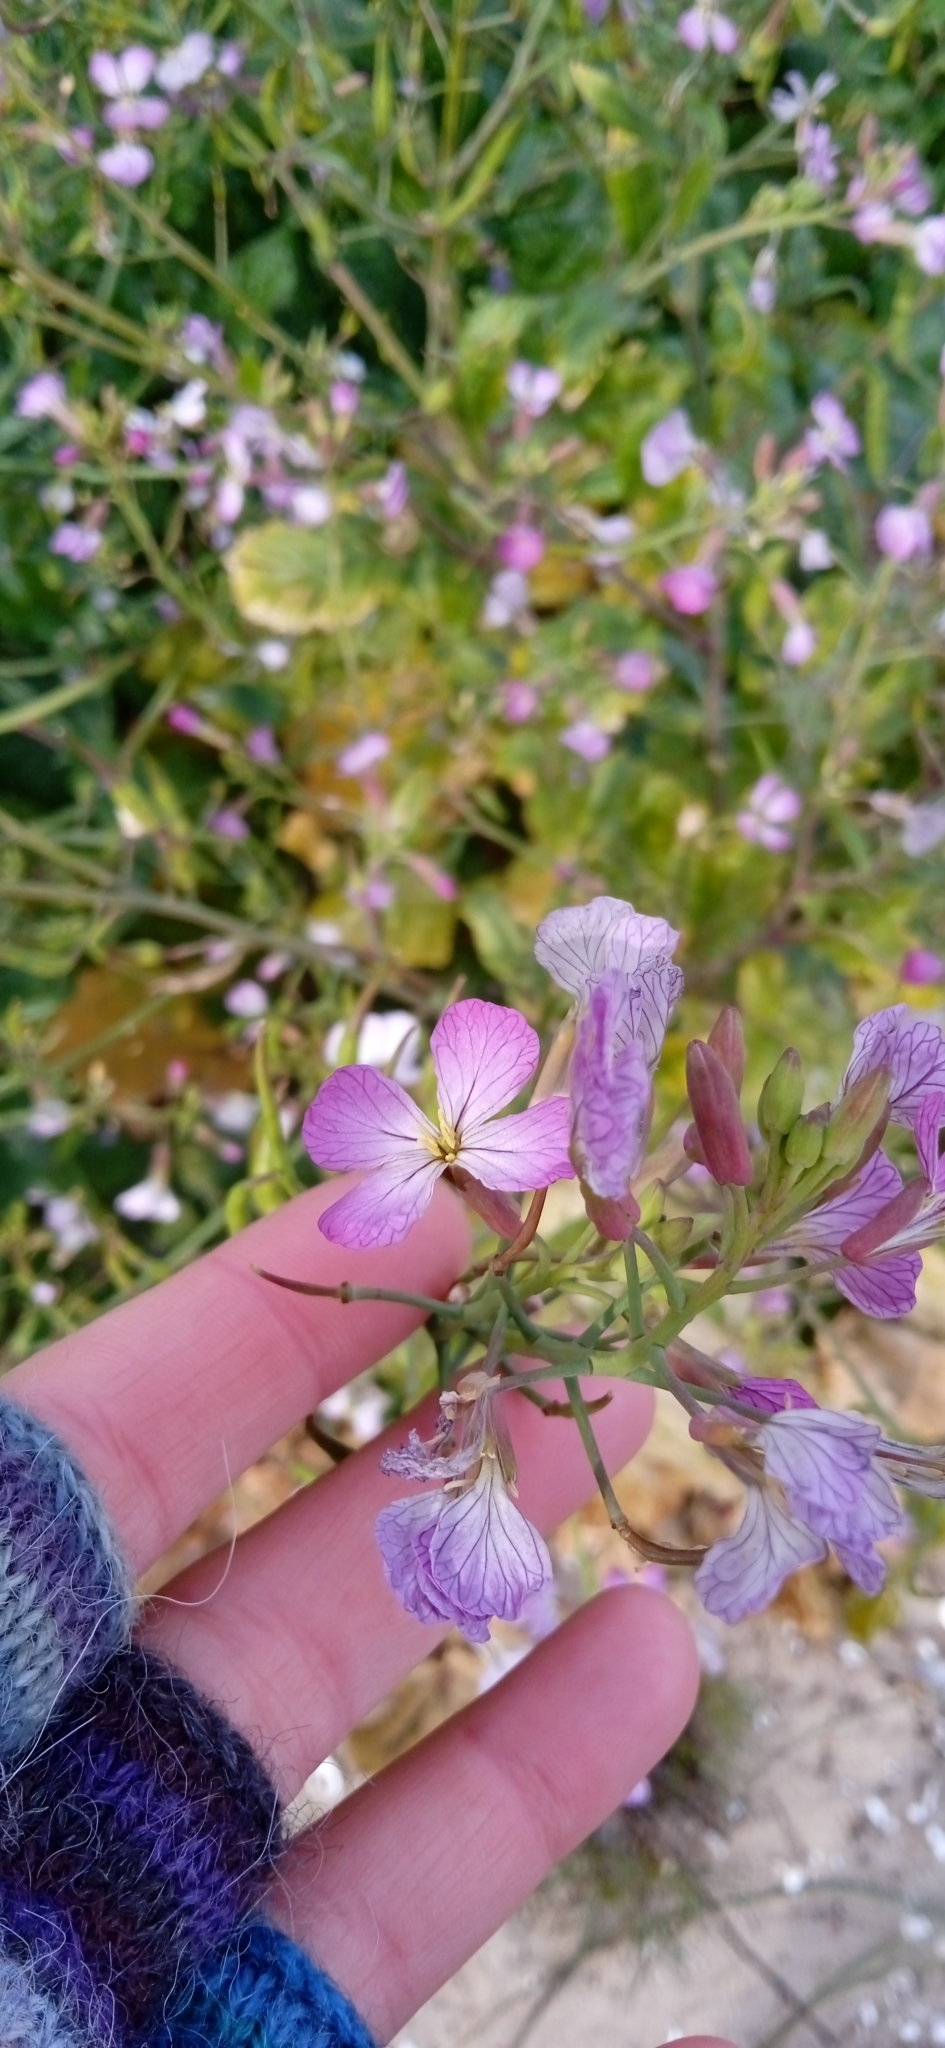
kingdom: Plantae
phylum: Tracheophyta
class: Magnoliopsida
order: Brassicales
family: Brassicaceae
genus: Raphanus
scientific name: Raphanus raphanistrum
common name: Wild radish
